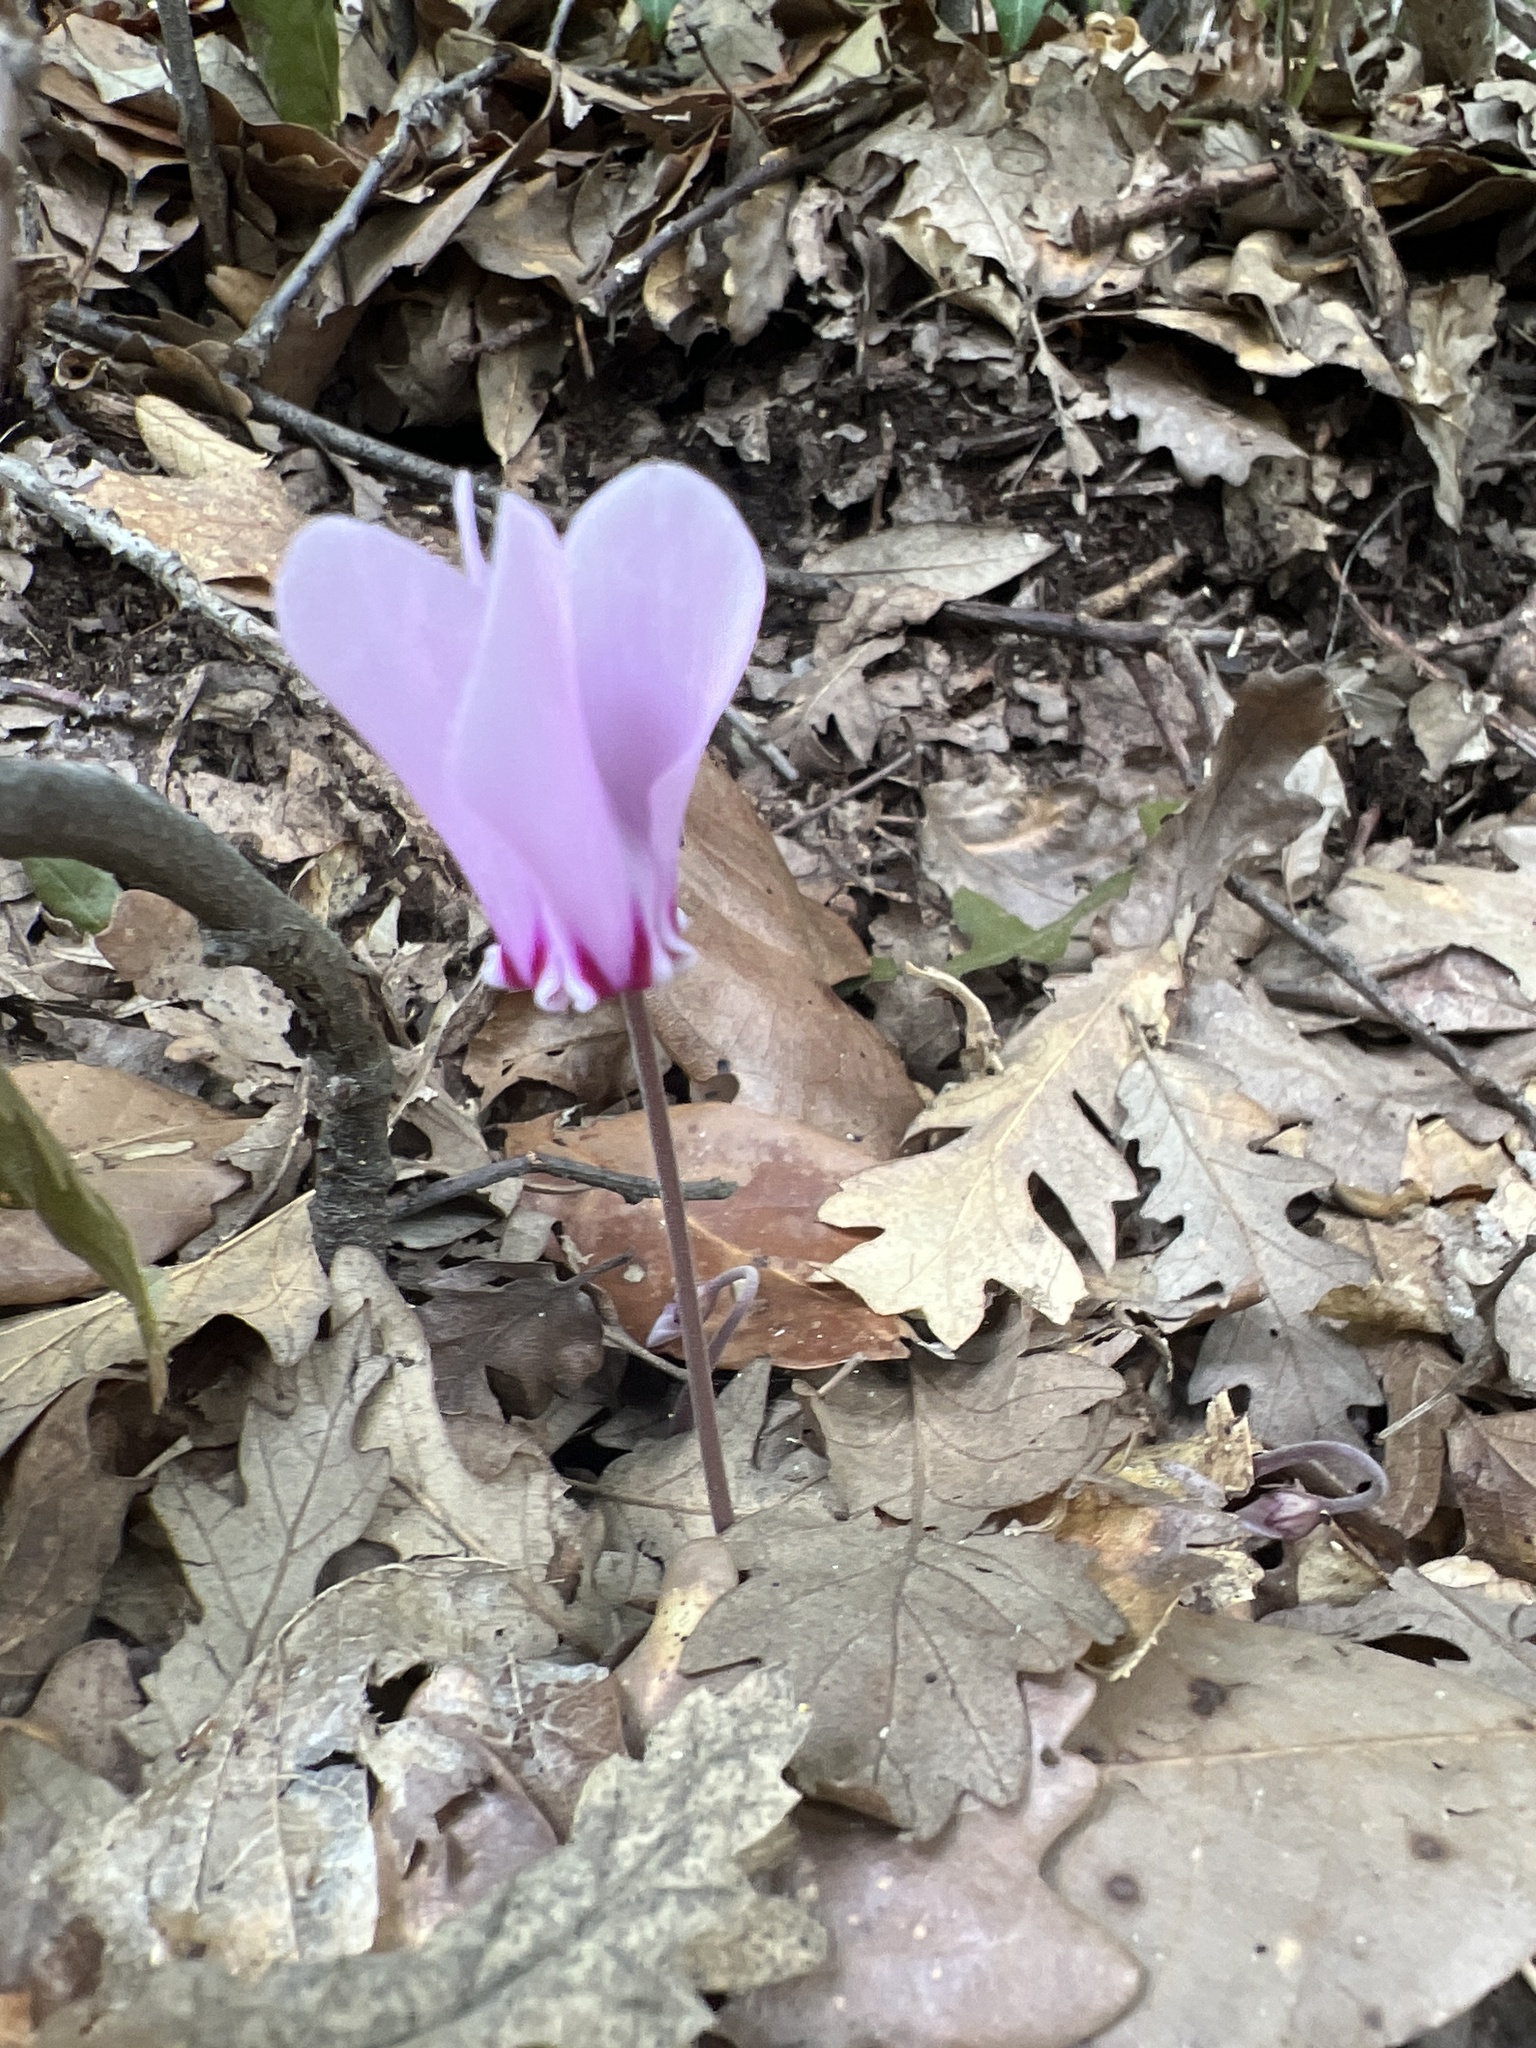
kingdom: Plantae
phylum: Tracheophyta
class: Magnoliopsida
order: Ericales
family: Primulaceae
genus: Cyclamen
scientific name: Cyclamen hederifolium
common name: Sowbread
